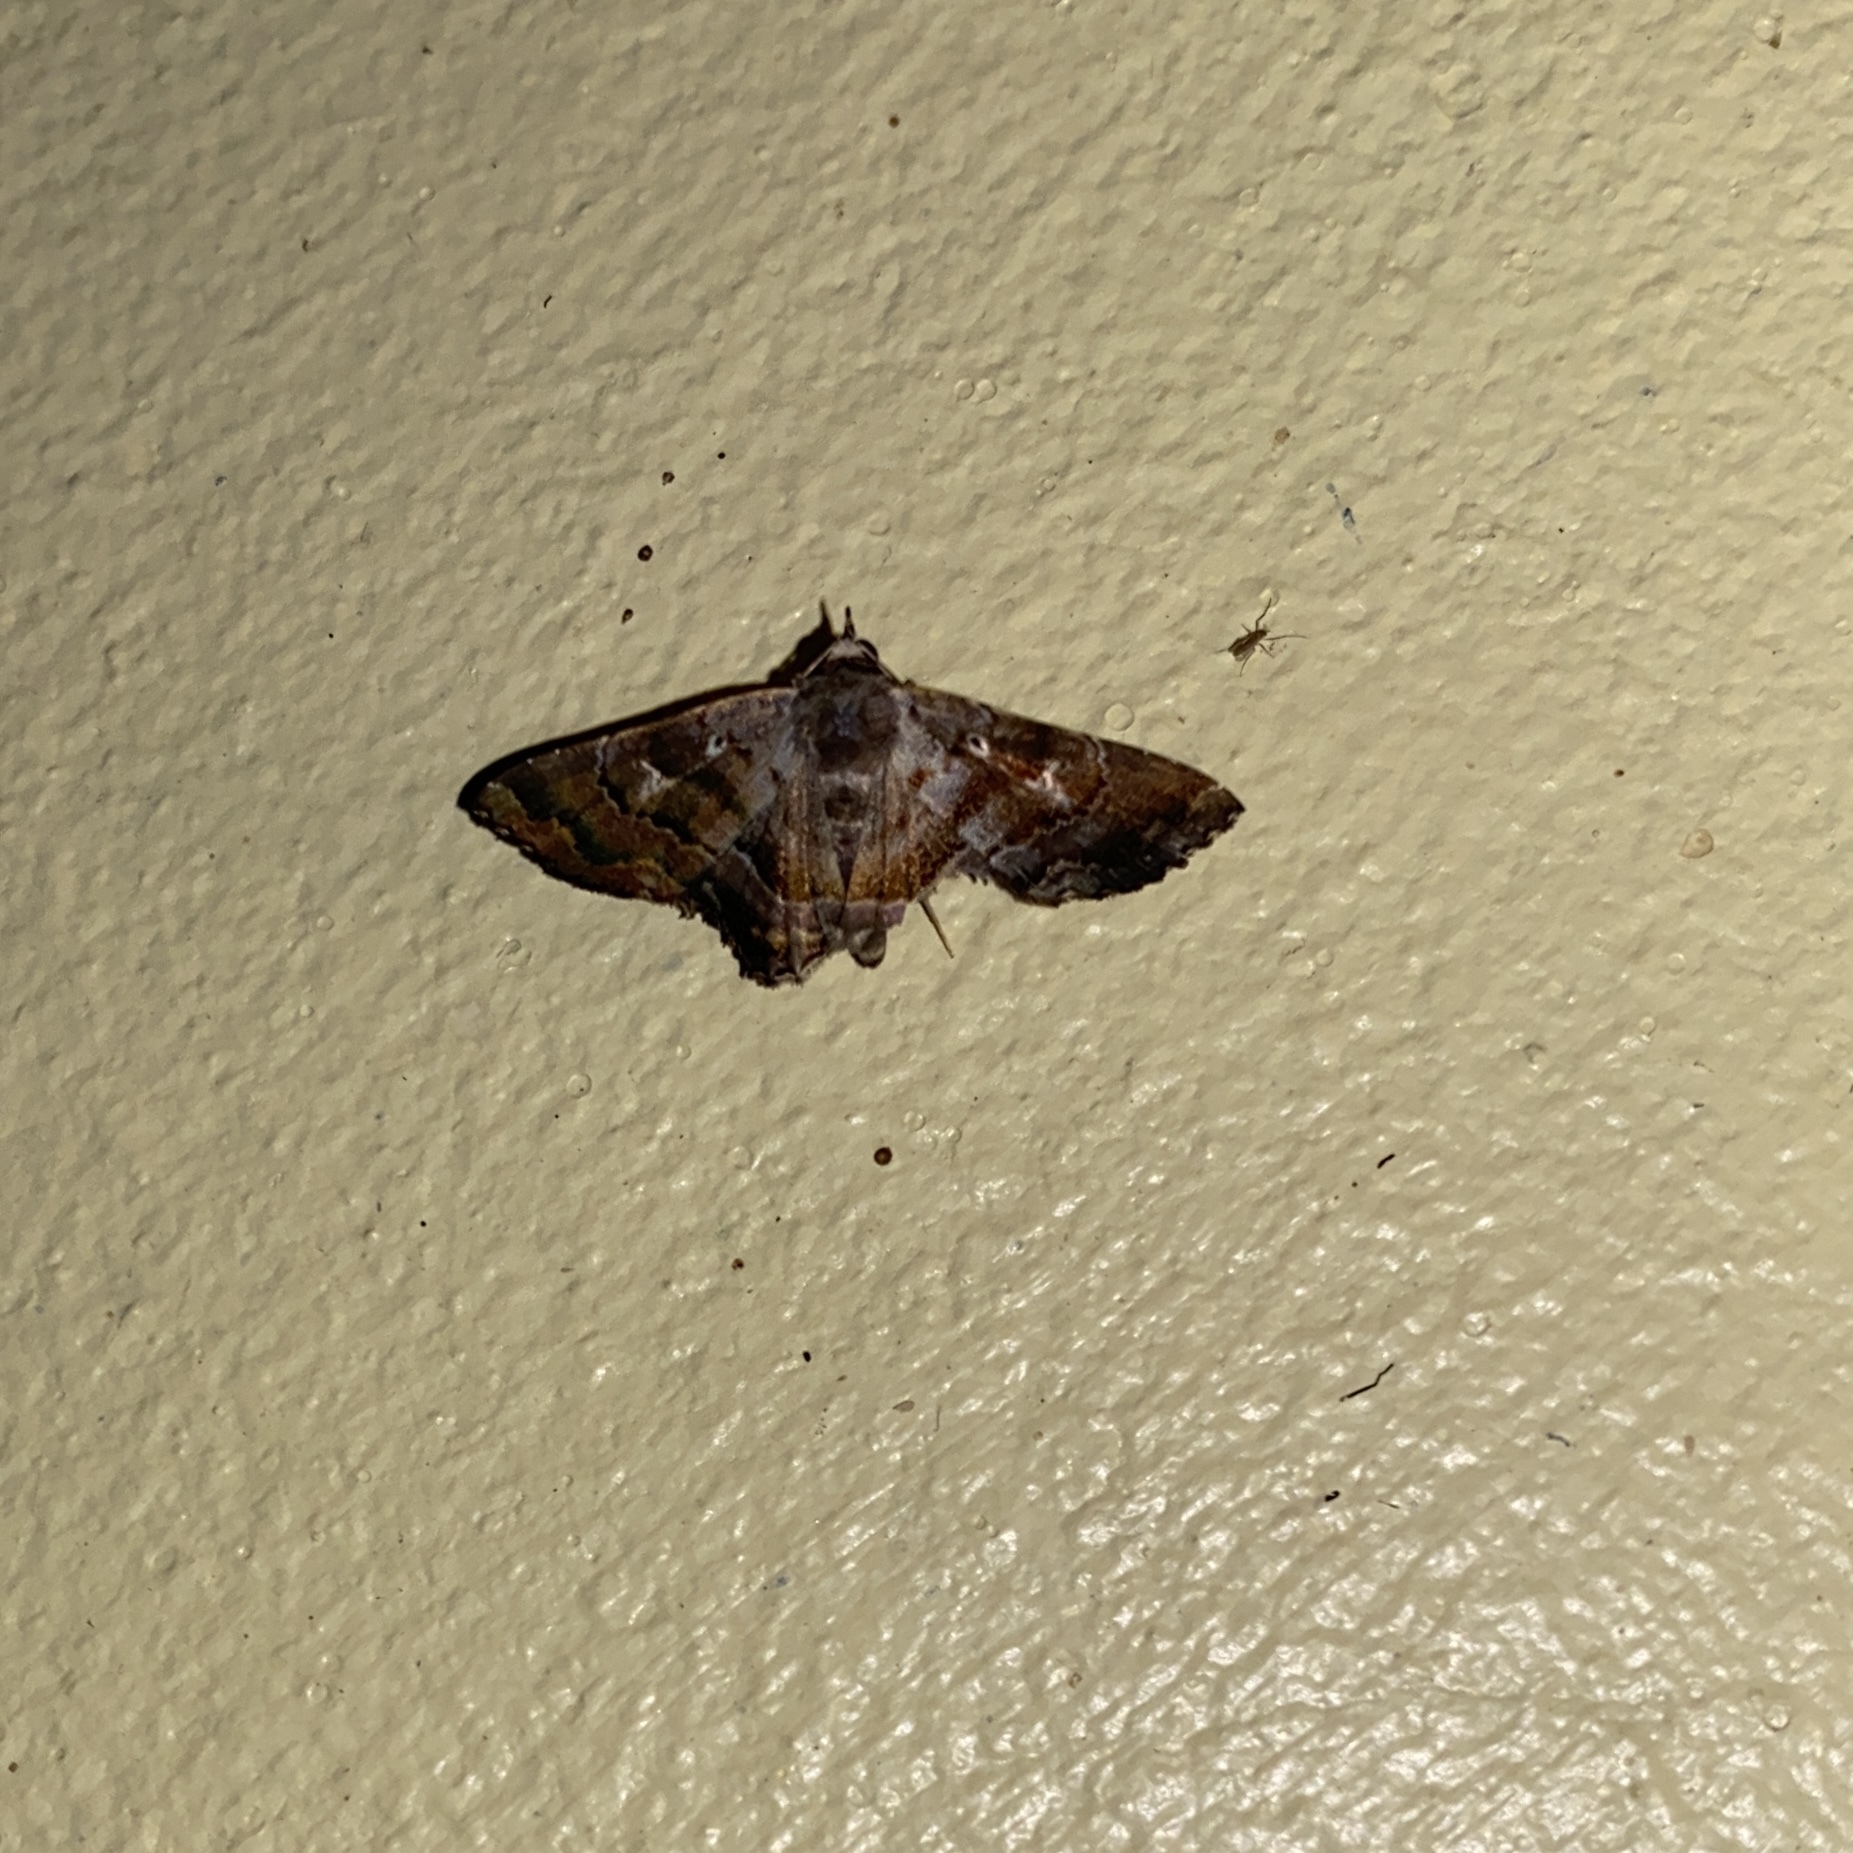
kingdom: Animalia
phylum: Arthropoda
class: Insecta
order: Lepidoptera
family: Erebidae
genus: Helia
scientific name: Helia bilunulalis
